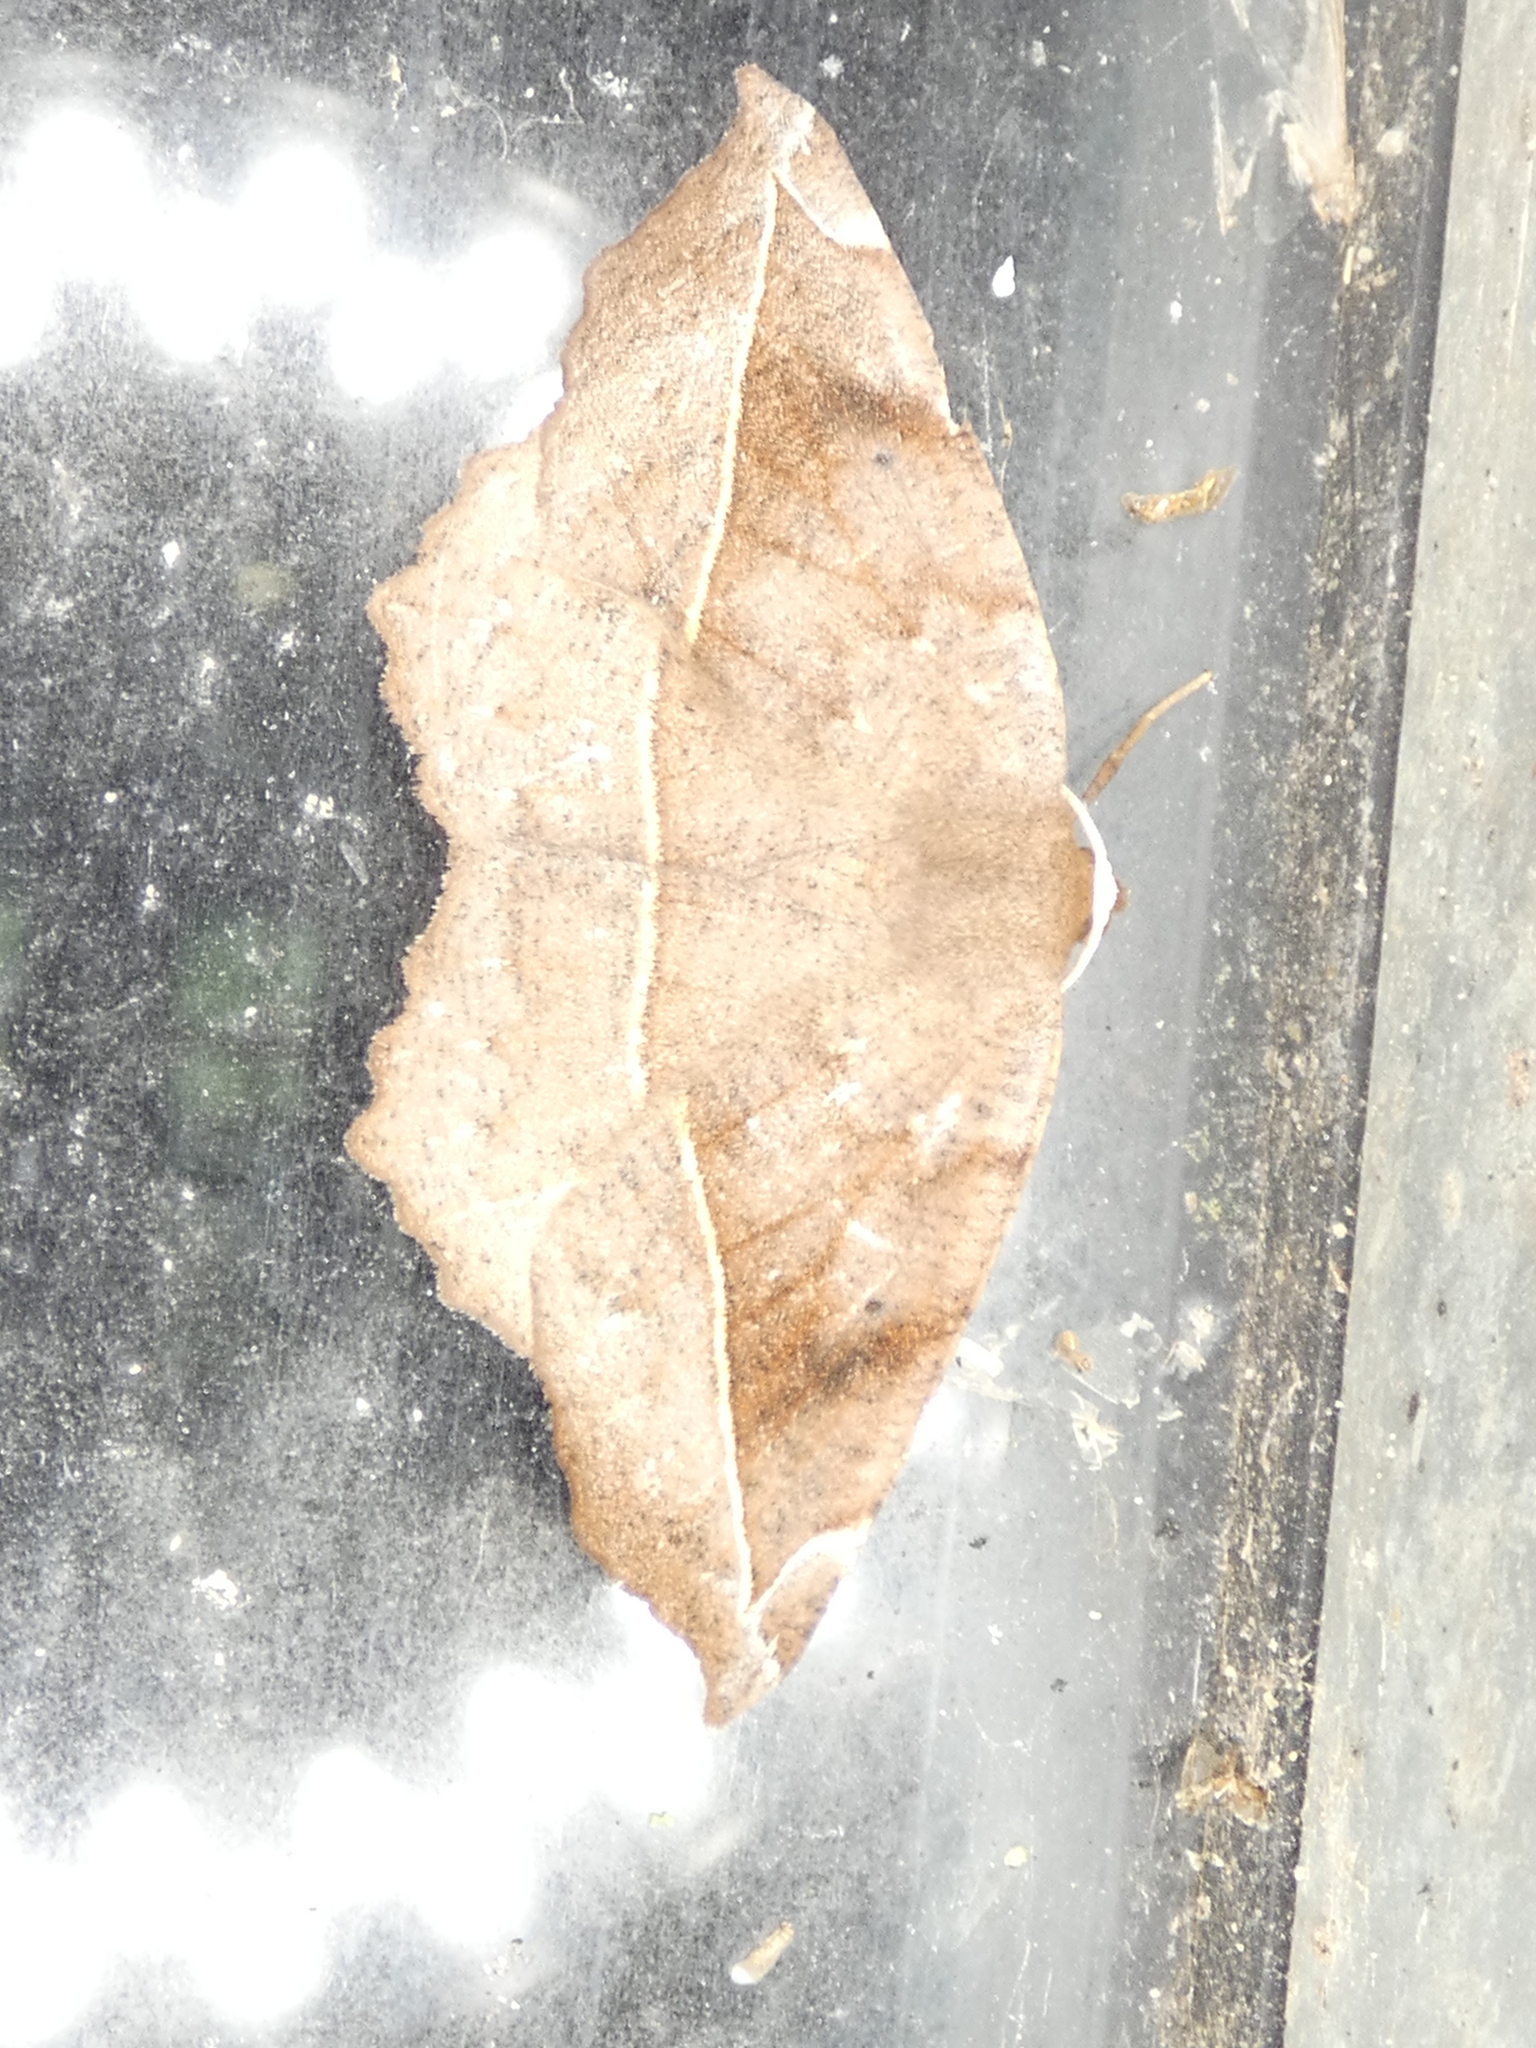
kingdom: Animalia
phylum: Arthropoda
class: Insecta
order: Lepidoptera
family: Geometridae
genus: Eutrapela
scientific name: Eutrapela clemataria
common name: Curved-toothed geometer
